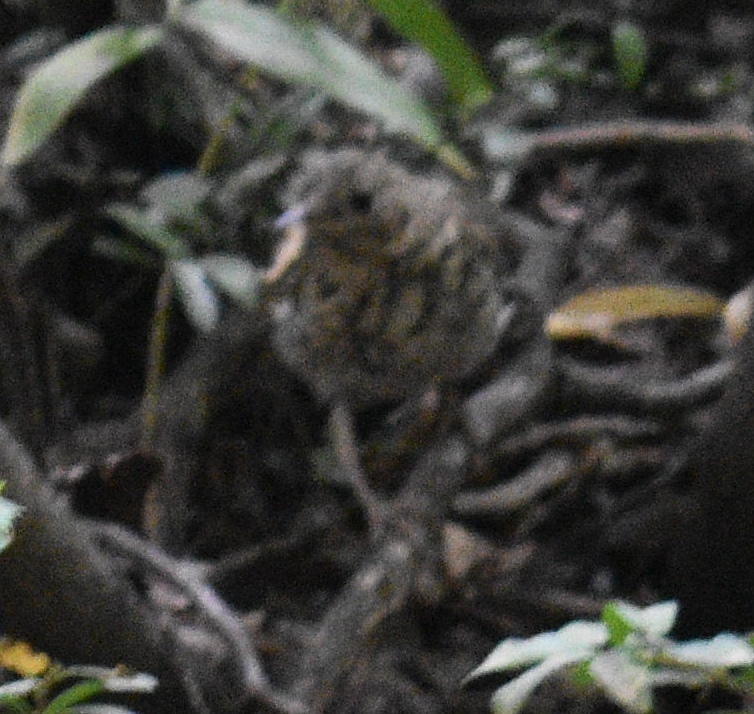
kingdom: Animalia
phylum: Chordata
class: Aves
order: Passeriformes
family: Turdidae
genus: Catharus
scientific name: Catharus guttatus
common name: Hermit thrush
